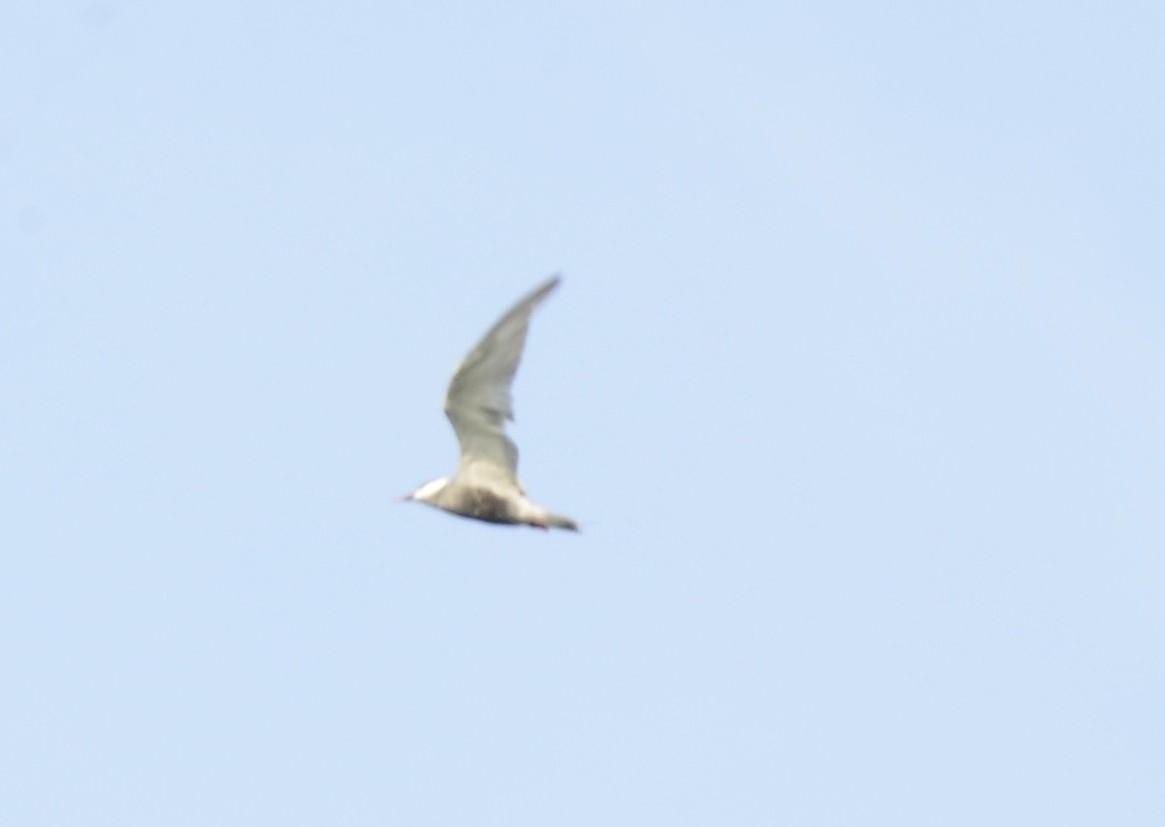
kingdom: Animalia
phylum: Chordata
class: Aves
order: Charadriiformes
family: Laridae
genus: Chlidonias
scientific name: Chlidonias hybrida
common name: Whiskered tern
